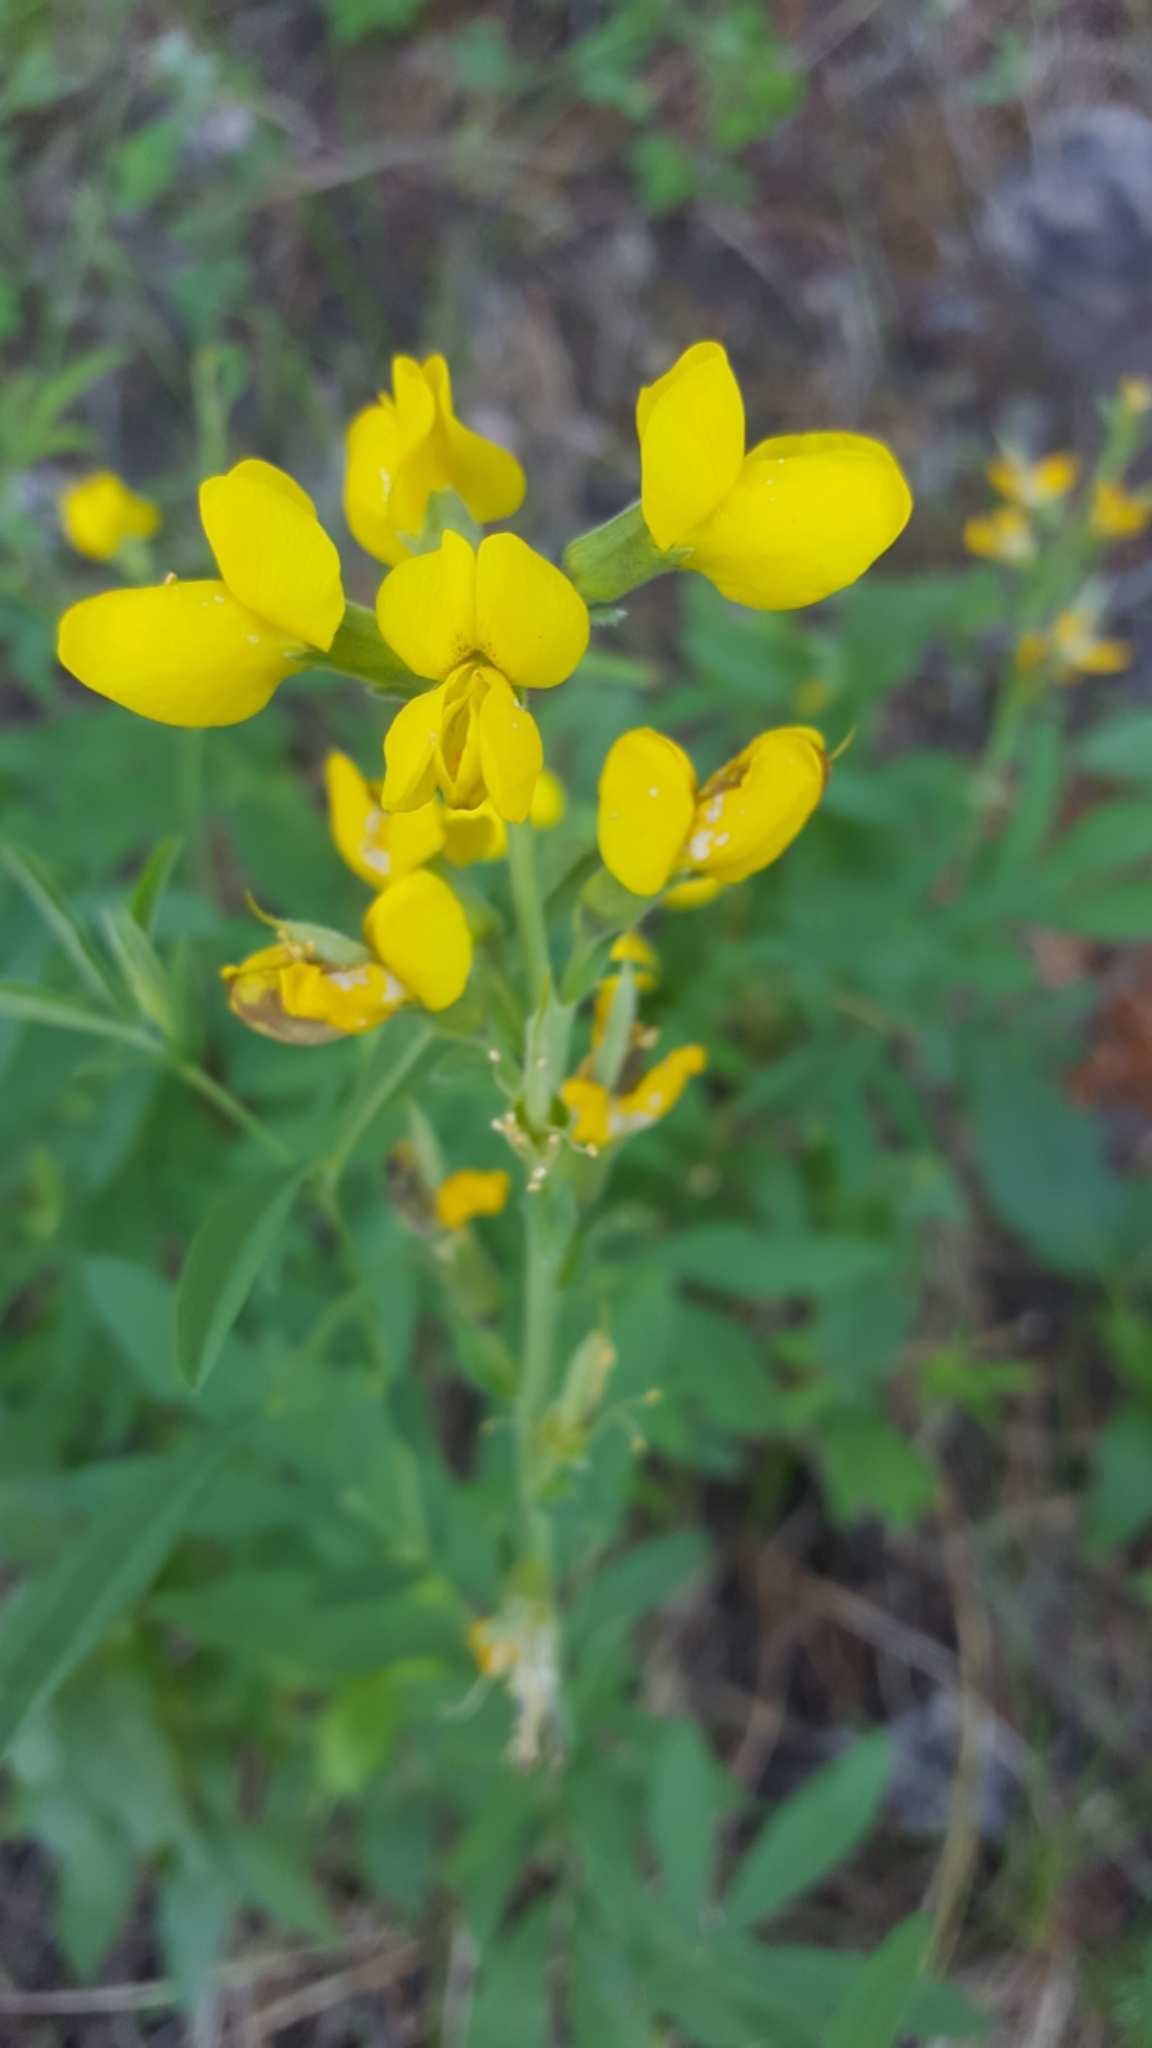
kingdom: Plantae
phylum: Tracheophyta
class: Magnoliopsida
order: Fabales
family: Fabaceae
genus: Thermopsis
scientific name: Thermopsis montana
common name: False lupin
